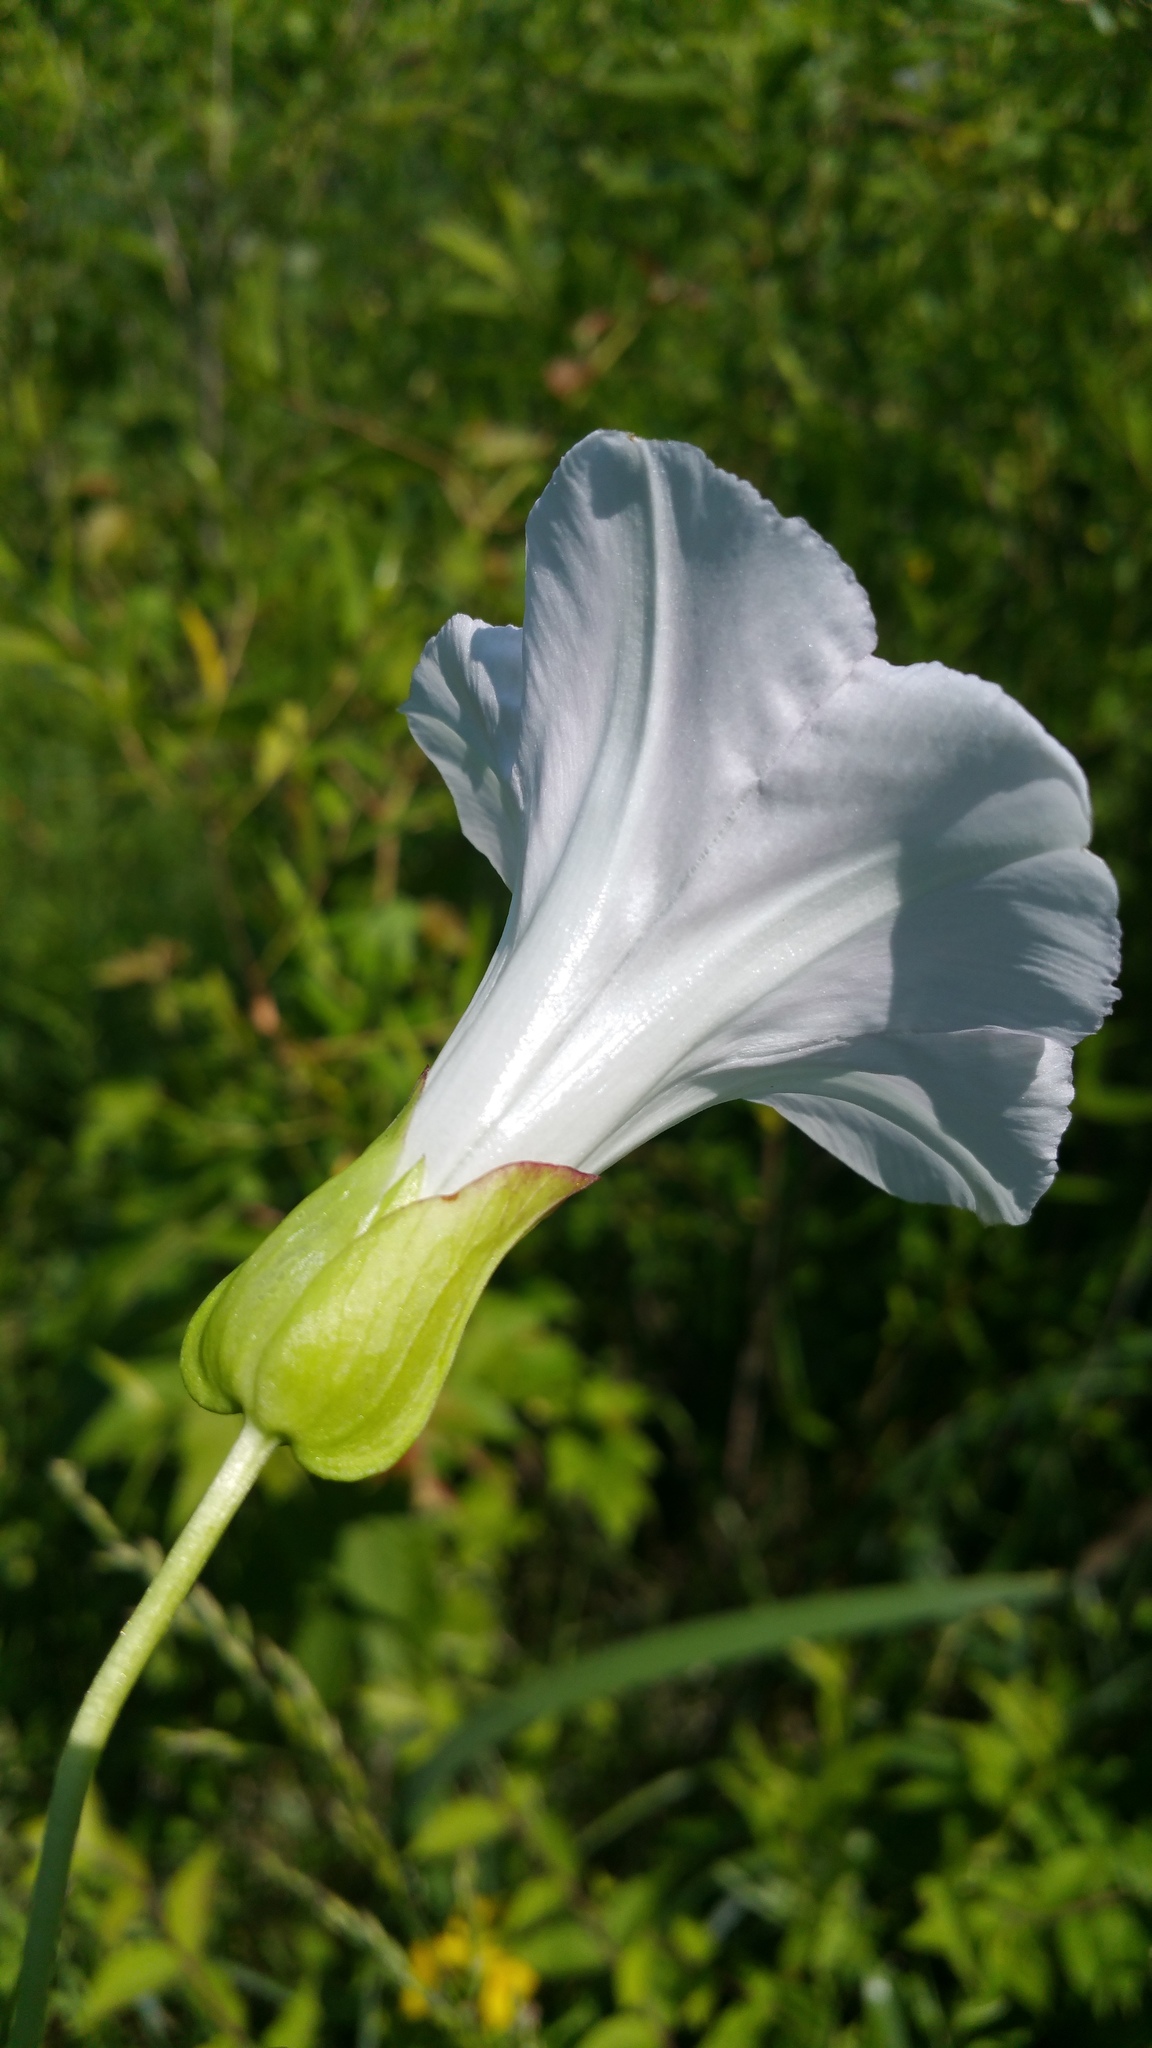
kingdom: Plantae
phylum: Tracheophyta
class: Magnoliopsida
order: Solanales
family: Convolvulaceae
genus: Calystegia
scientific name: Calystegia sepium
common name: Hedge bindweed
